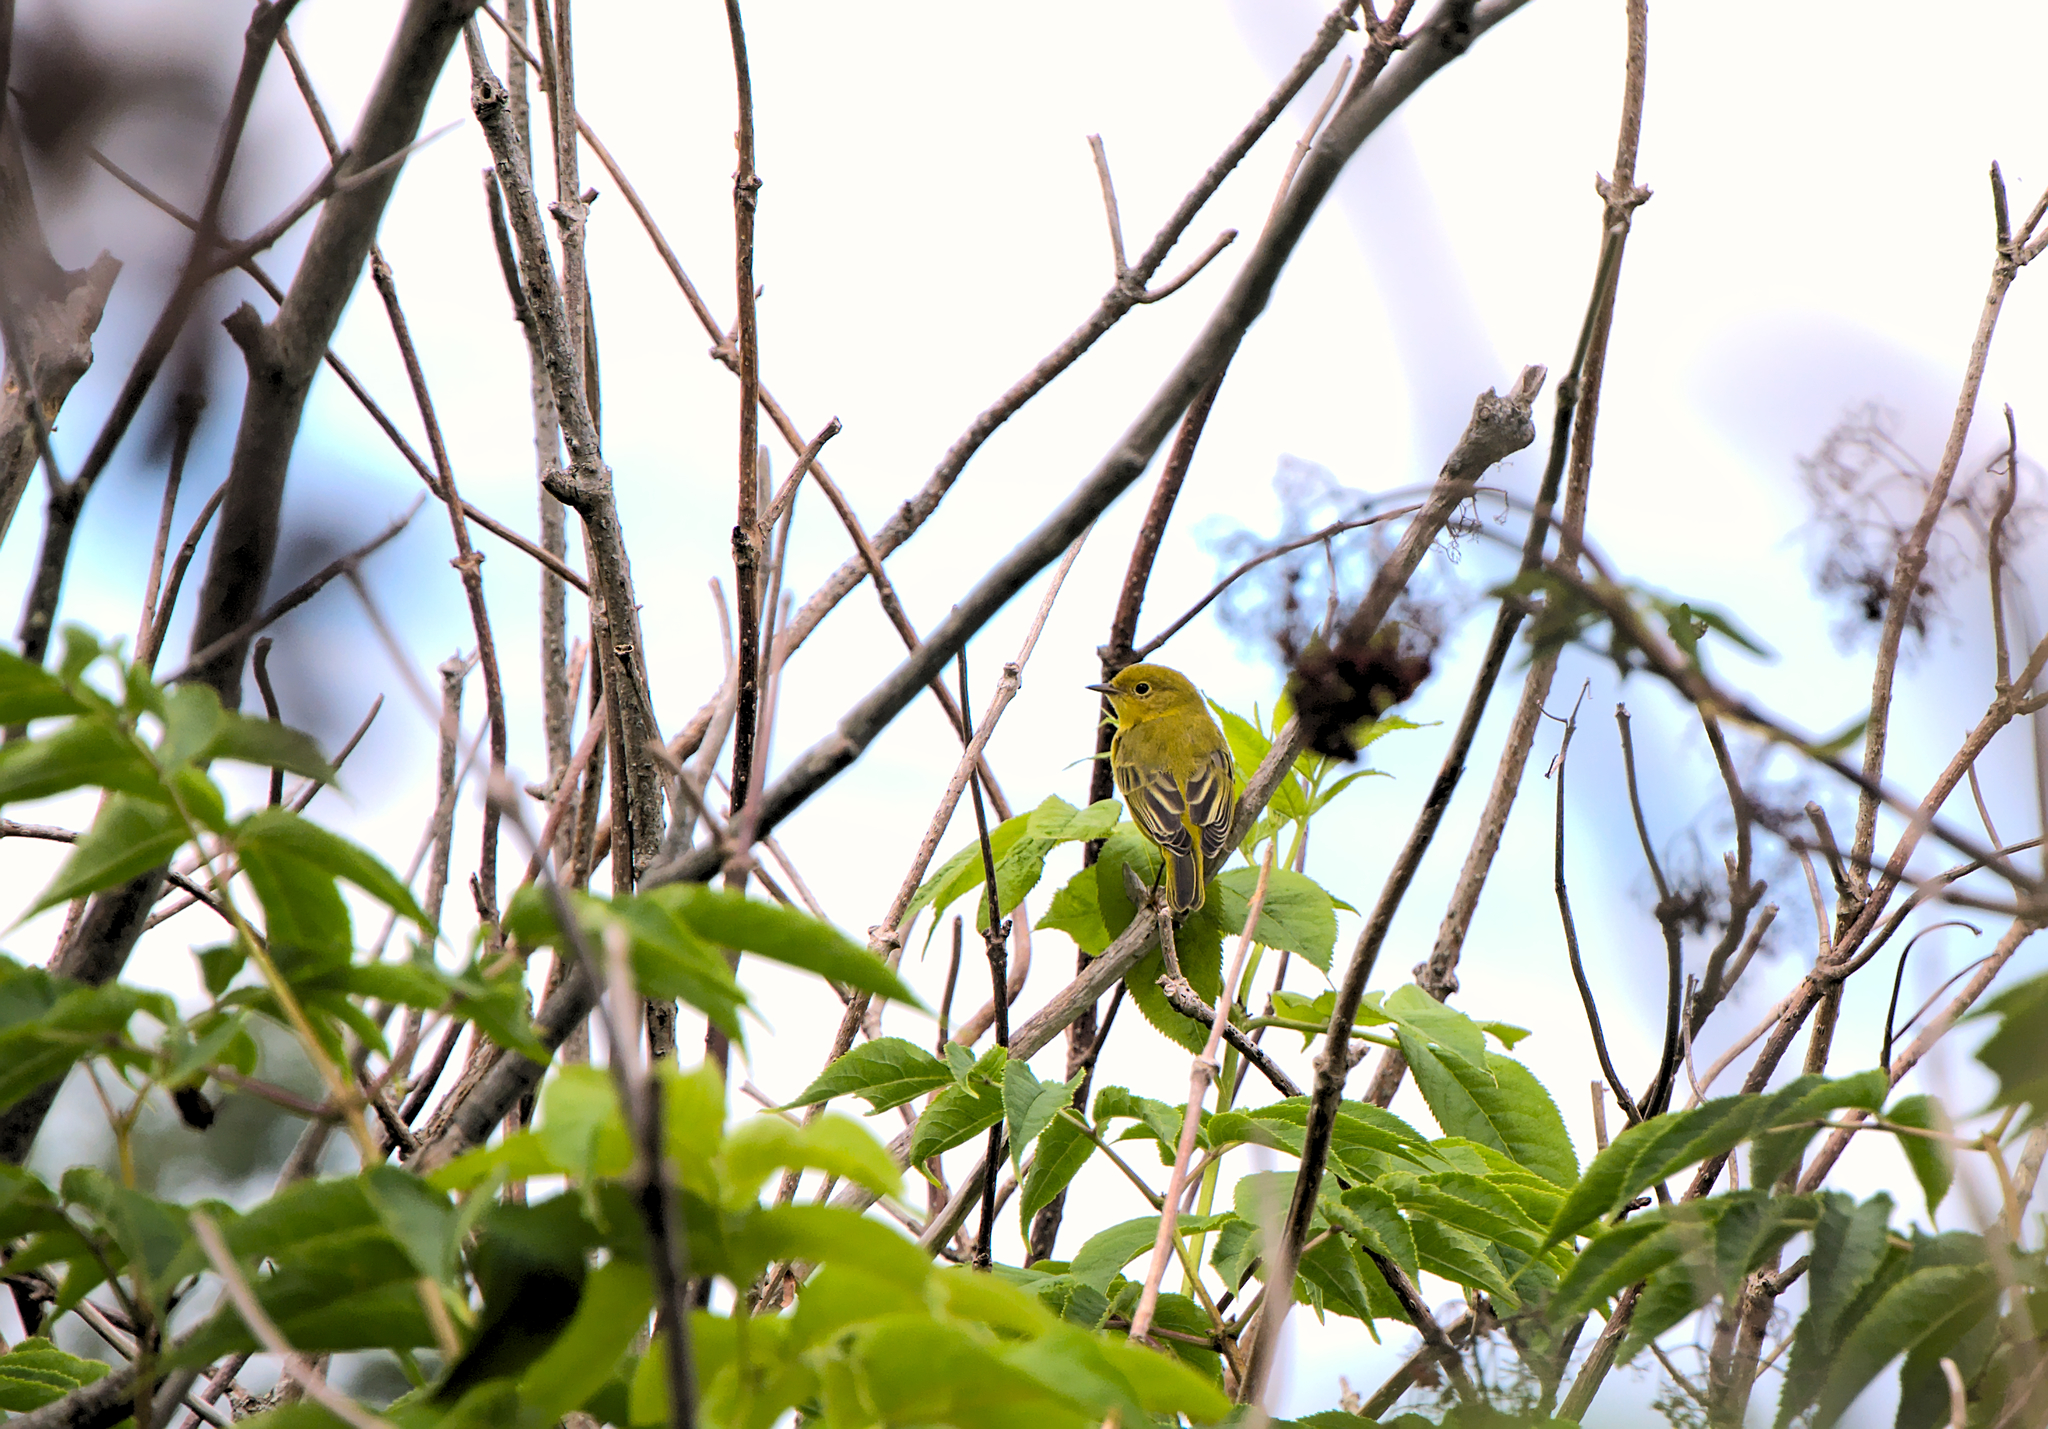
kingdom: Animalia
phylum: Chordata
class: Aves
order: Passeriformes
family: Parulidae
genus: Setophaga
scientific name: Setophaga petechia
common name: Yellow warbler
